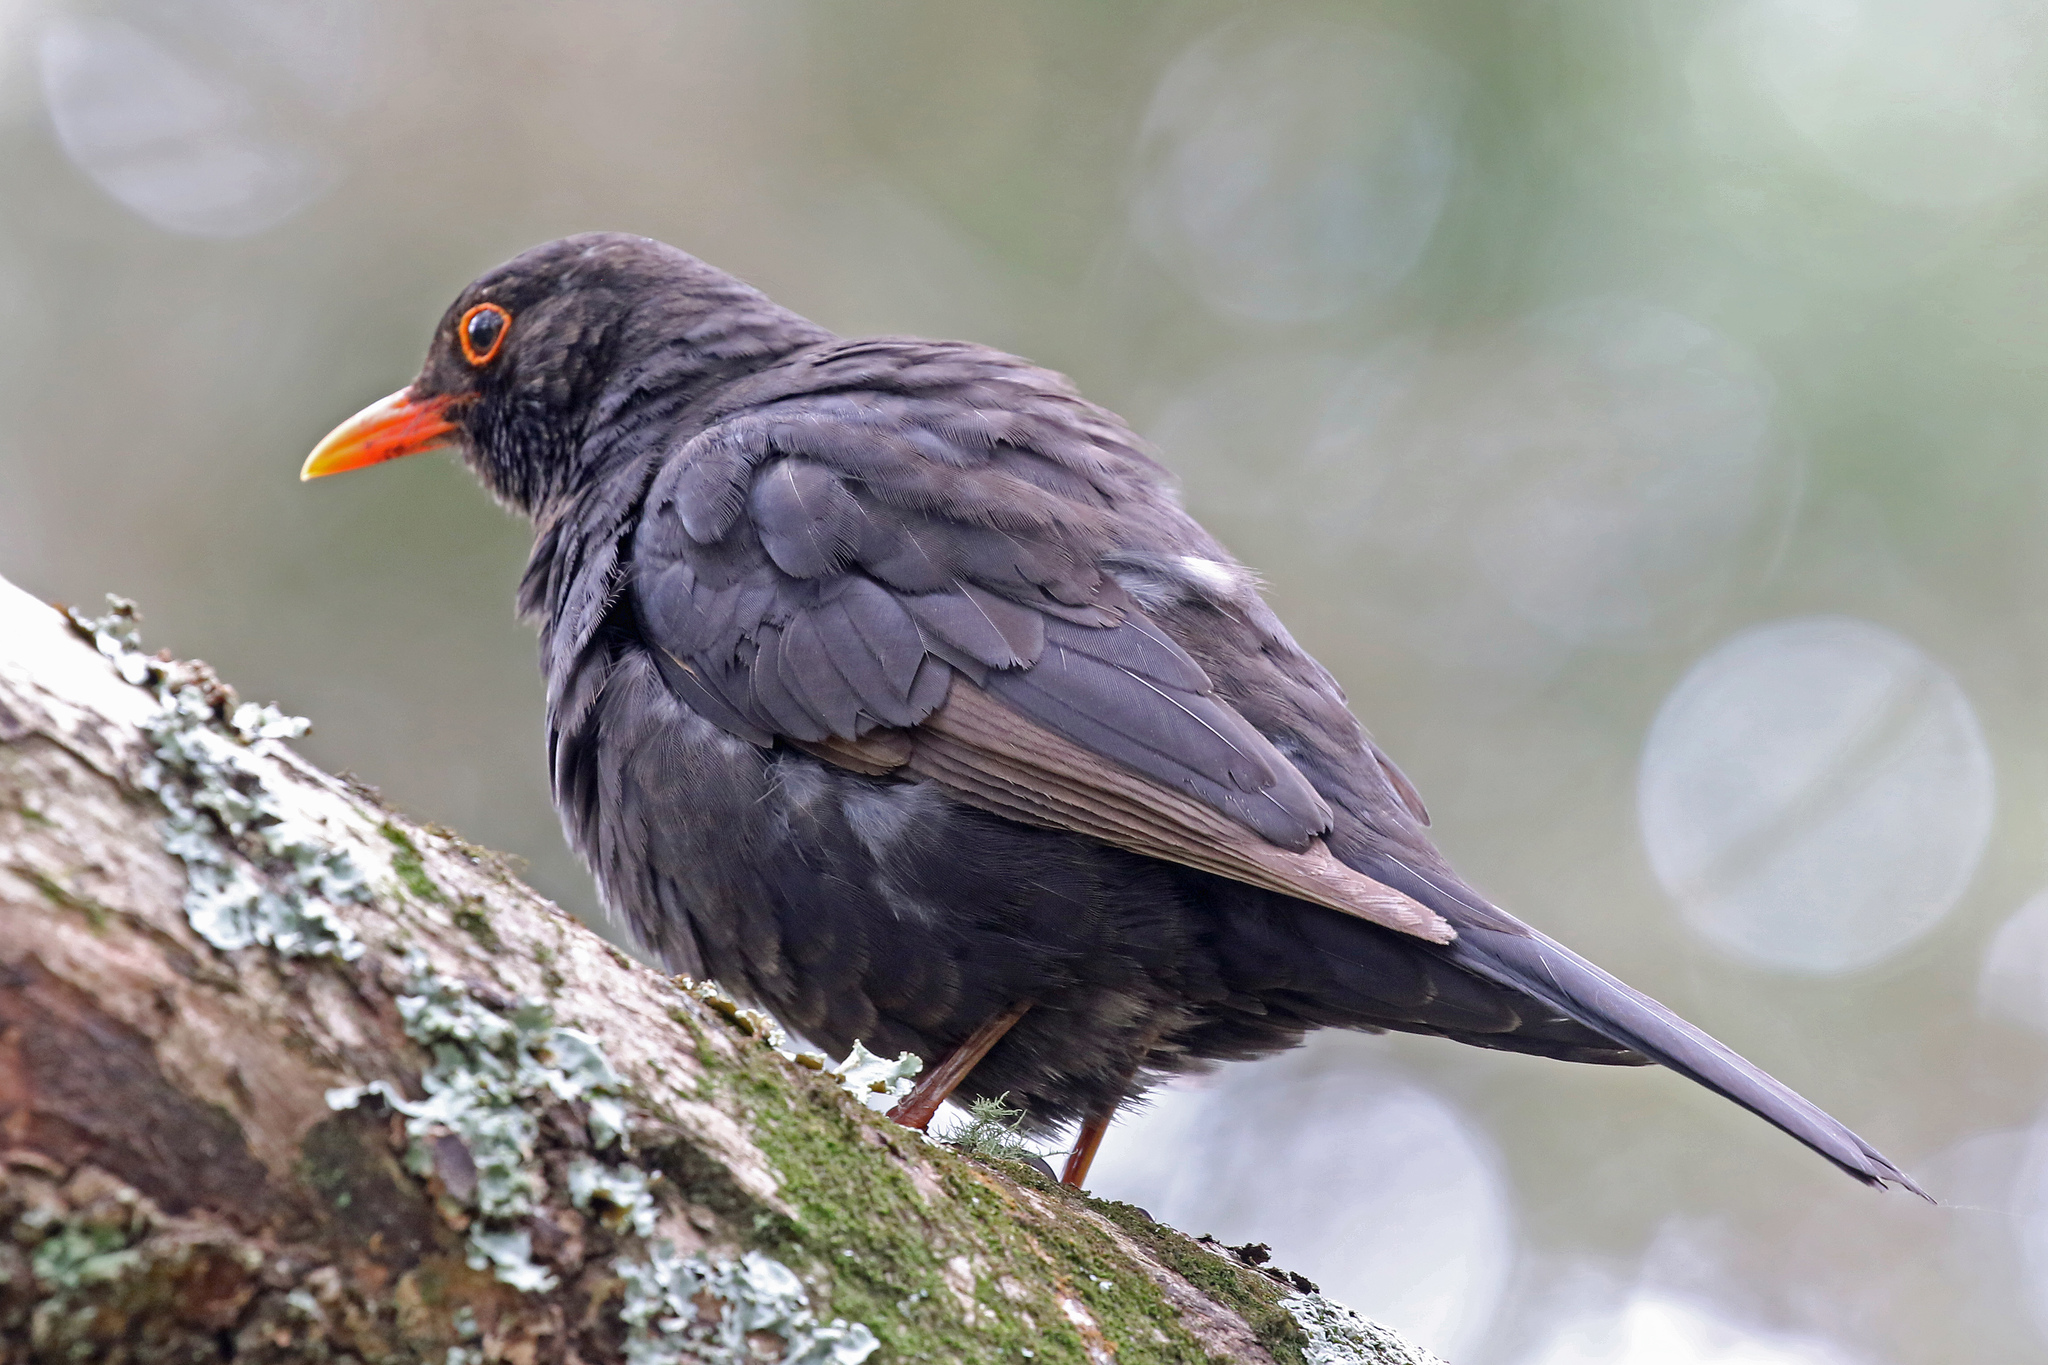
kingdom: Animalia
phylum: Chordata
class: Aves
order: Passeriformes
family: Turdidae
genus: Turdus
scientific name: Turdus merula
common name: Common blackbird
